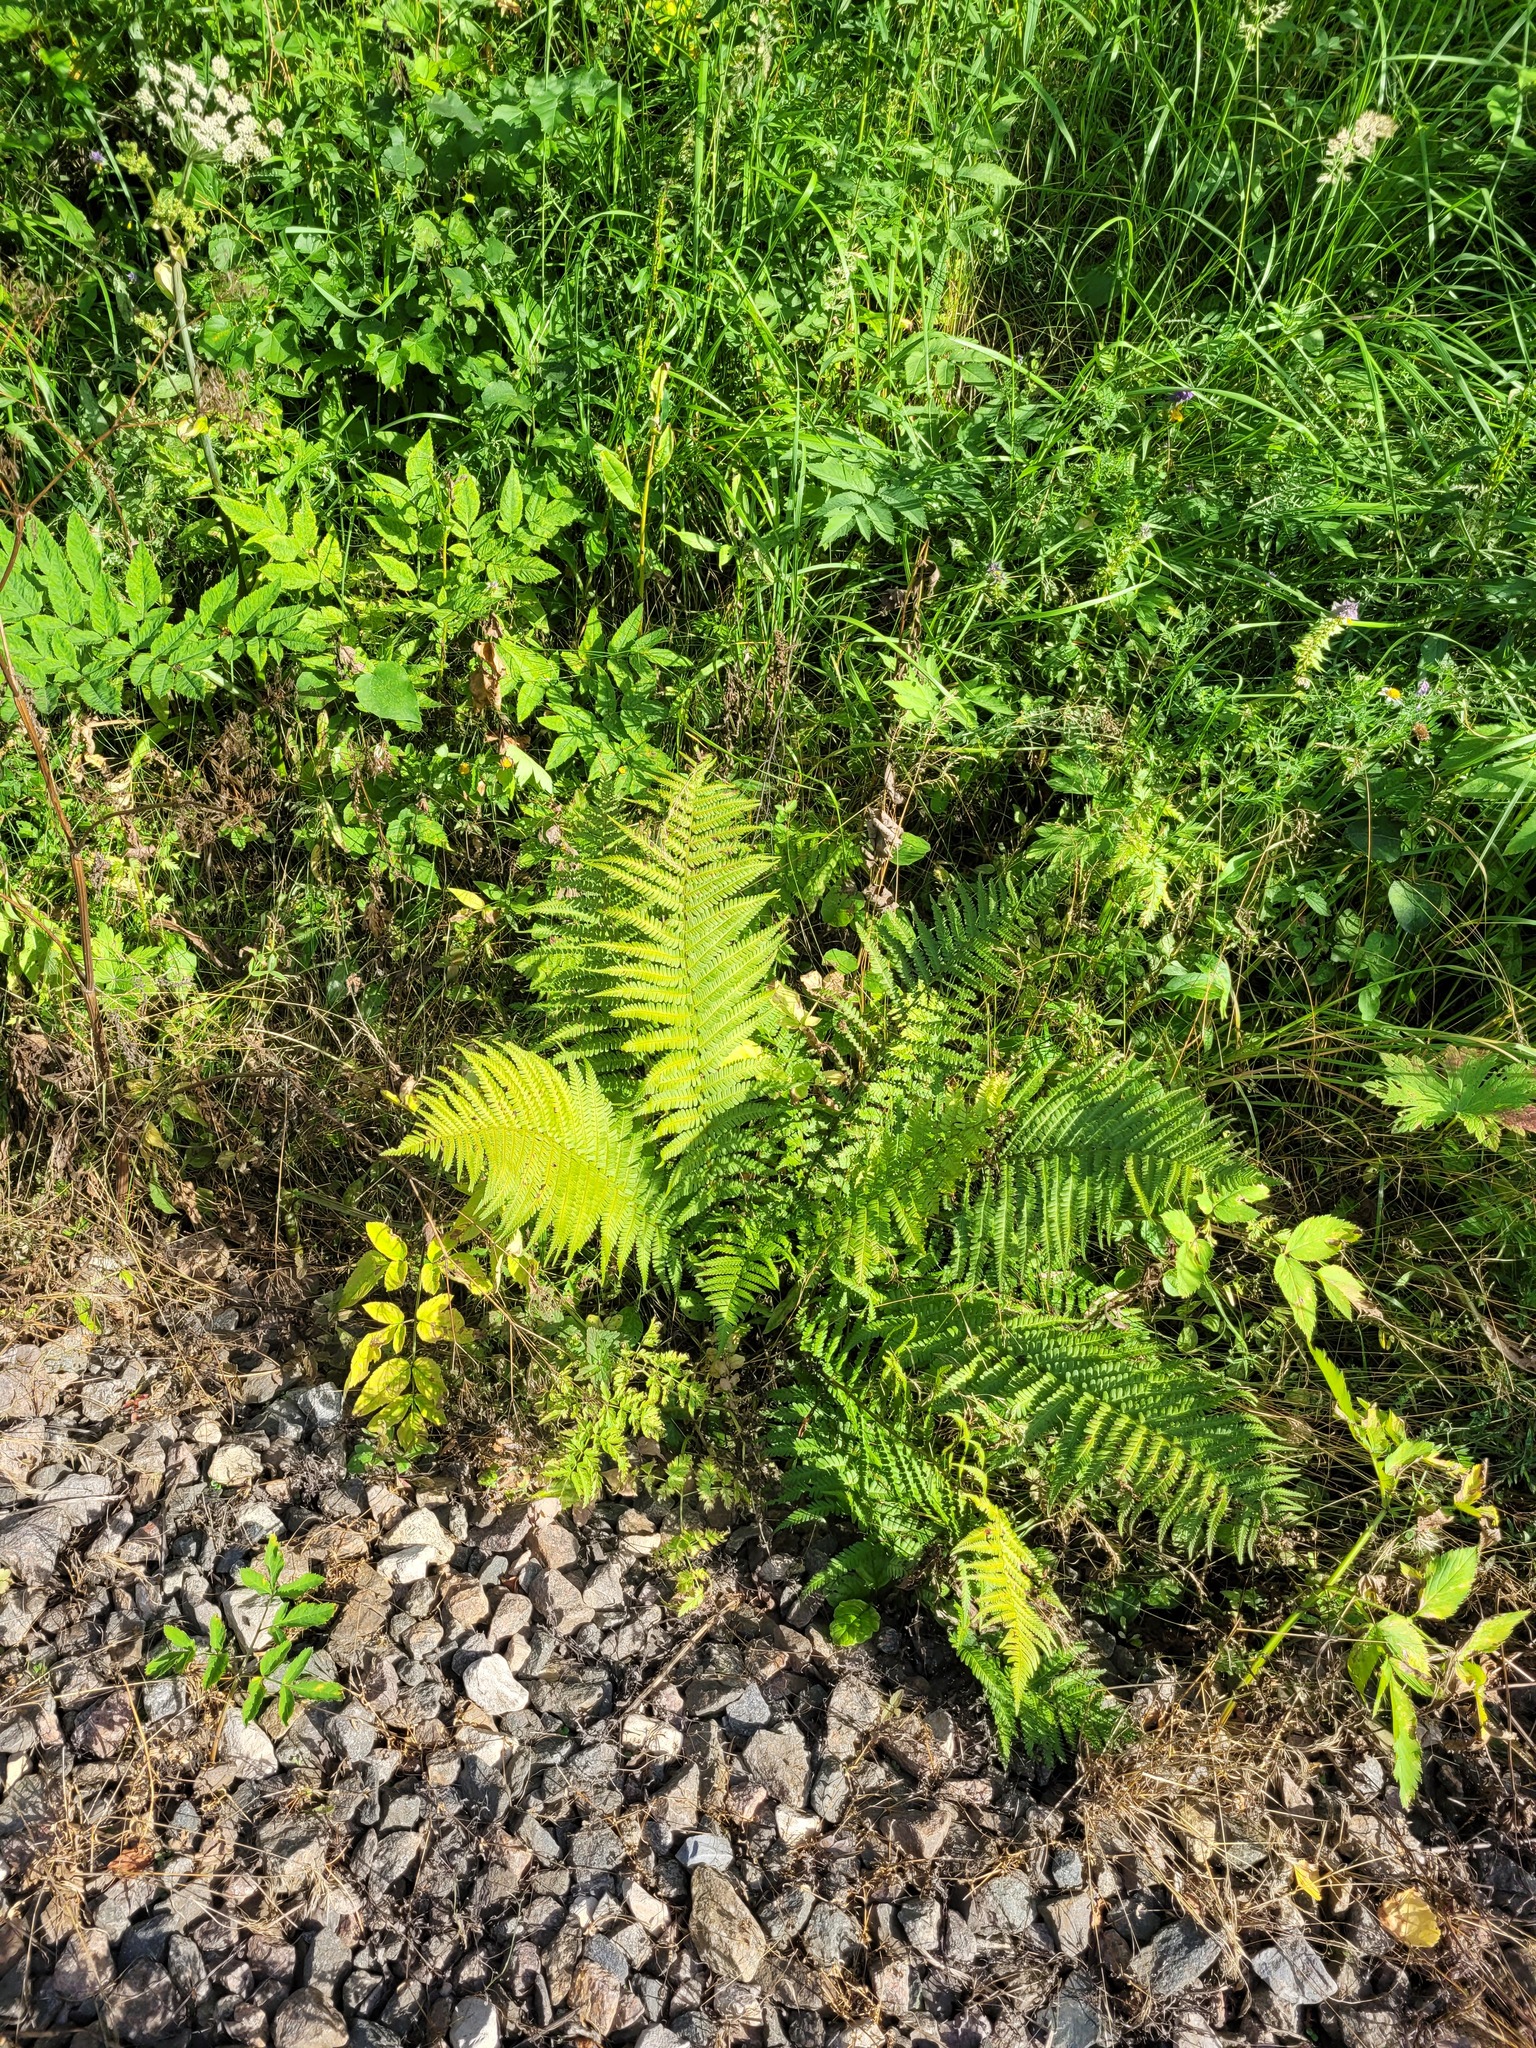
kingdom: Plantae
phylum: Tracheophyta
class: Polypodiopsida
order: Polypodiales
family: Dryopteridaceae
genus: Dryopteris
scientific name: Dryopteris filix-mas
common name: Male fern
